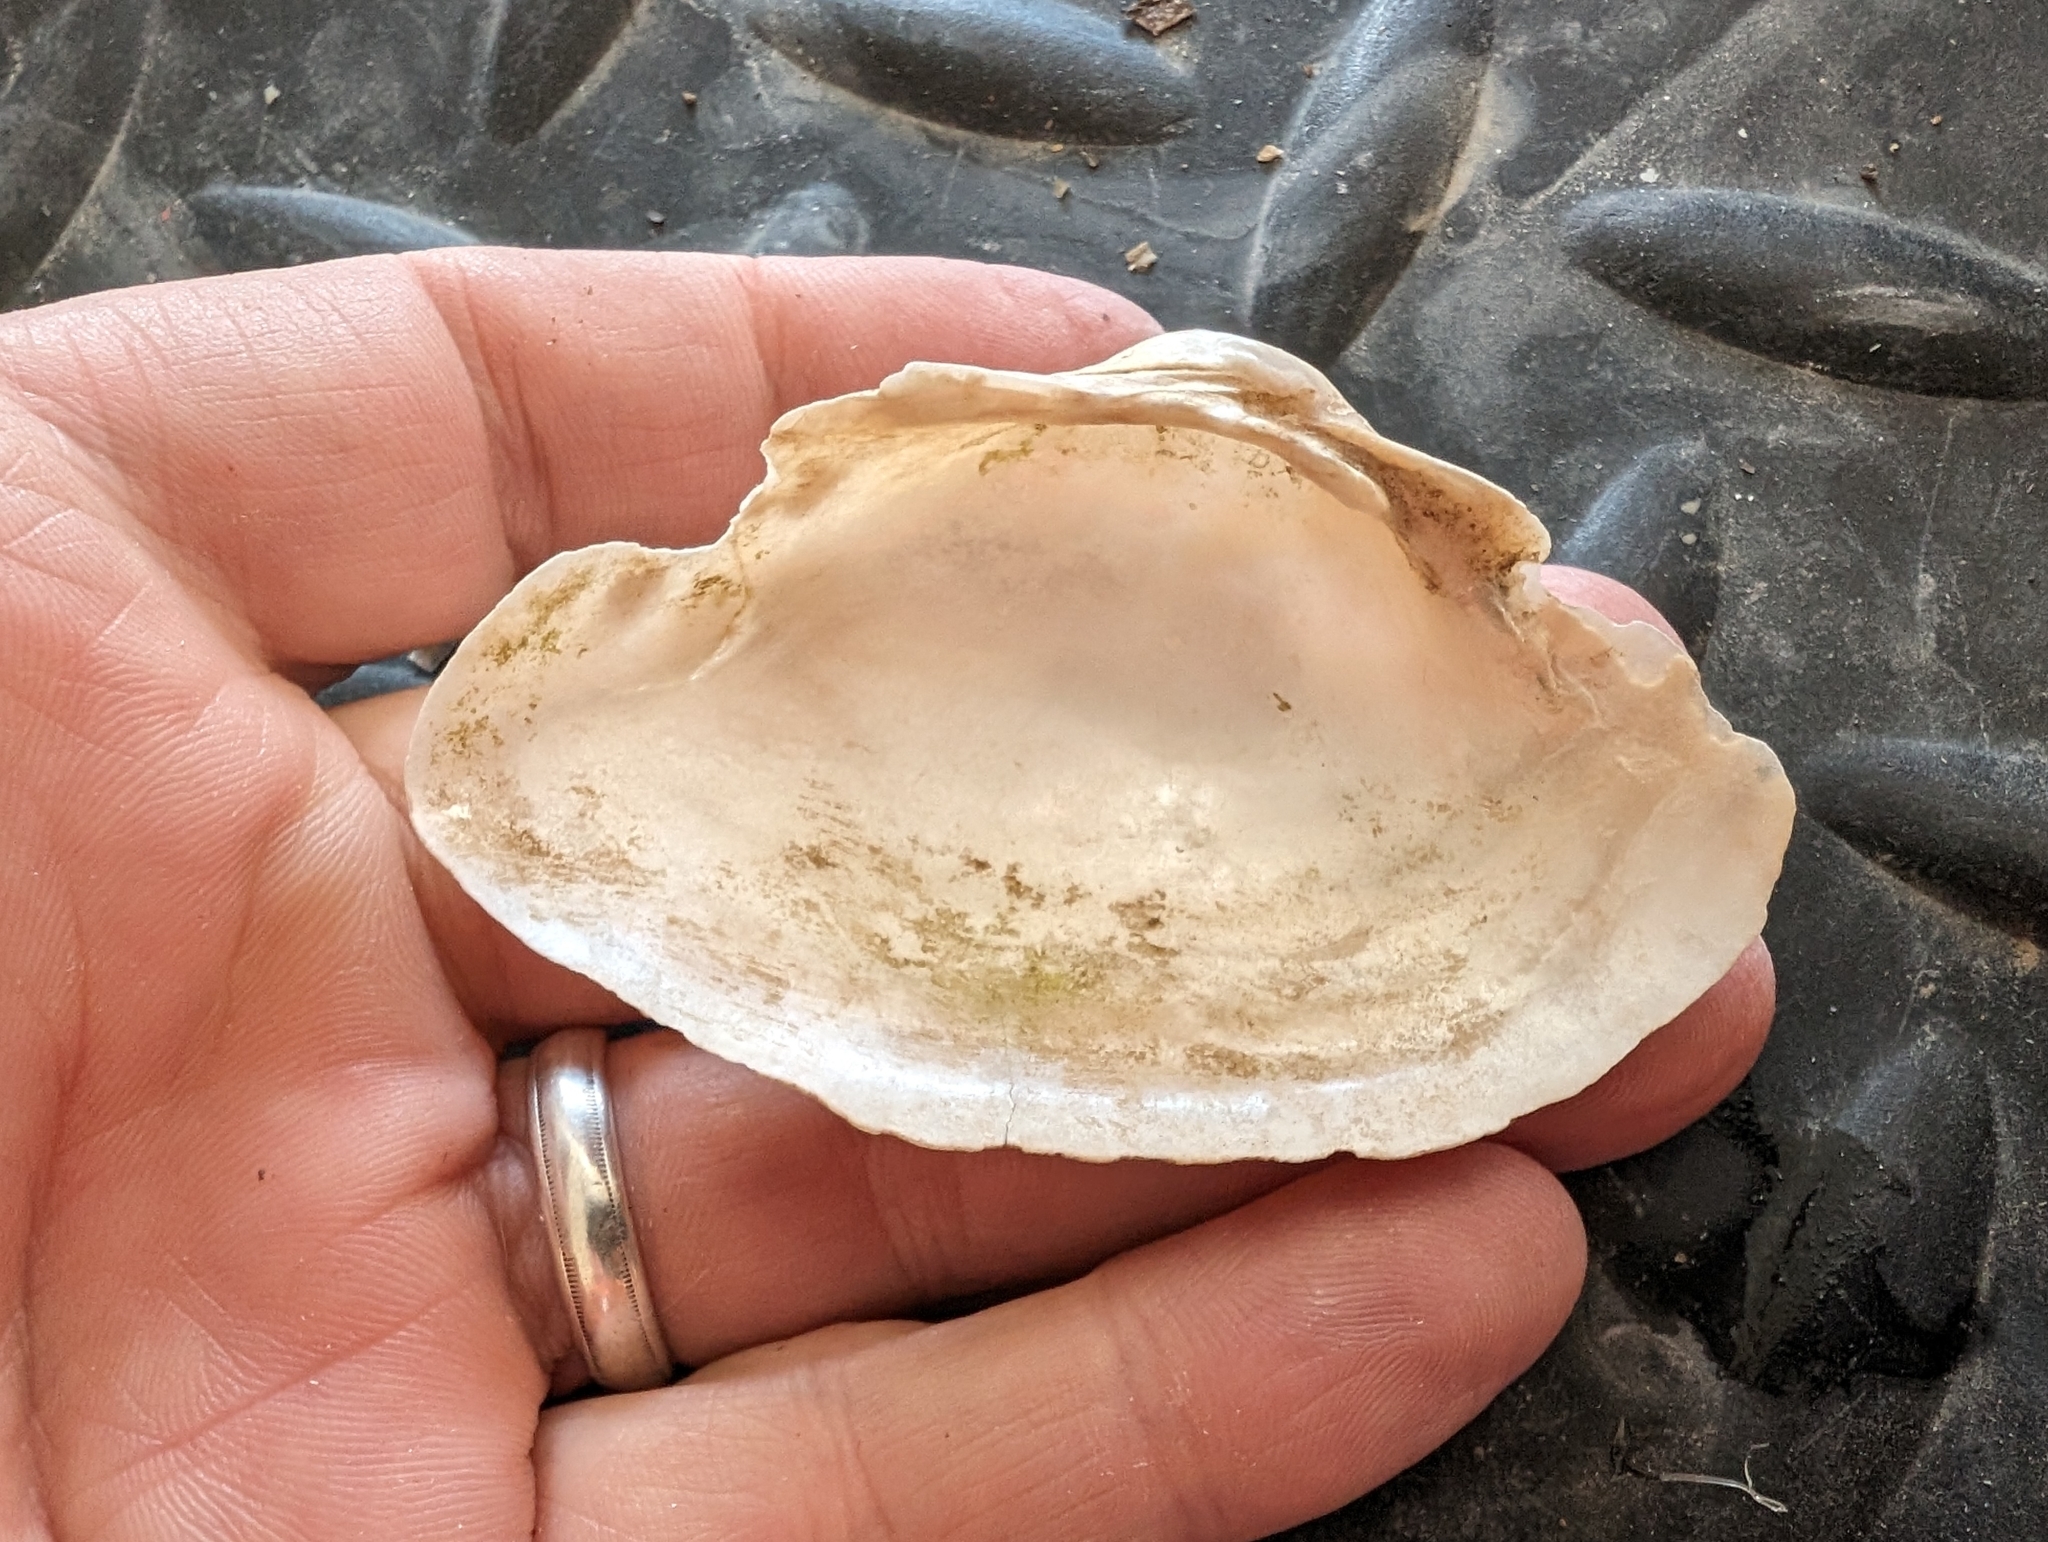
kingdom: Animalia
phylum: Mollusca
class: Bivalvia
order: Unionida
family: Unionidae
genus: Alasmidonta
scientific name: Alasmidonta marginata
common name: Elktoe
